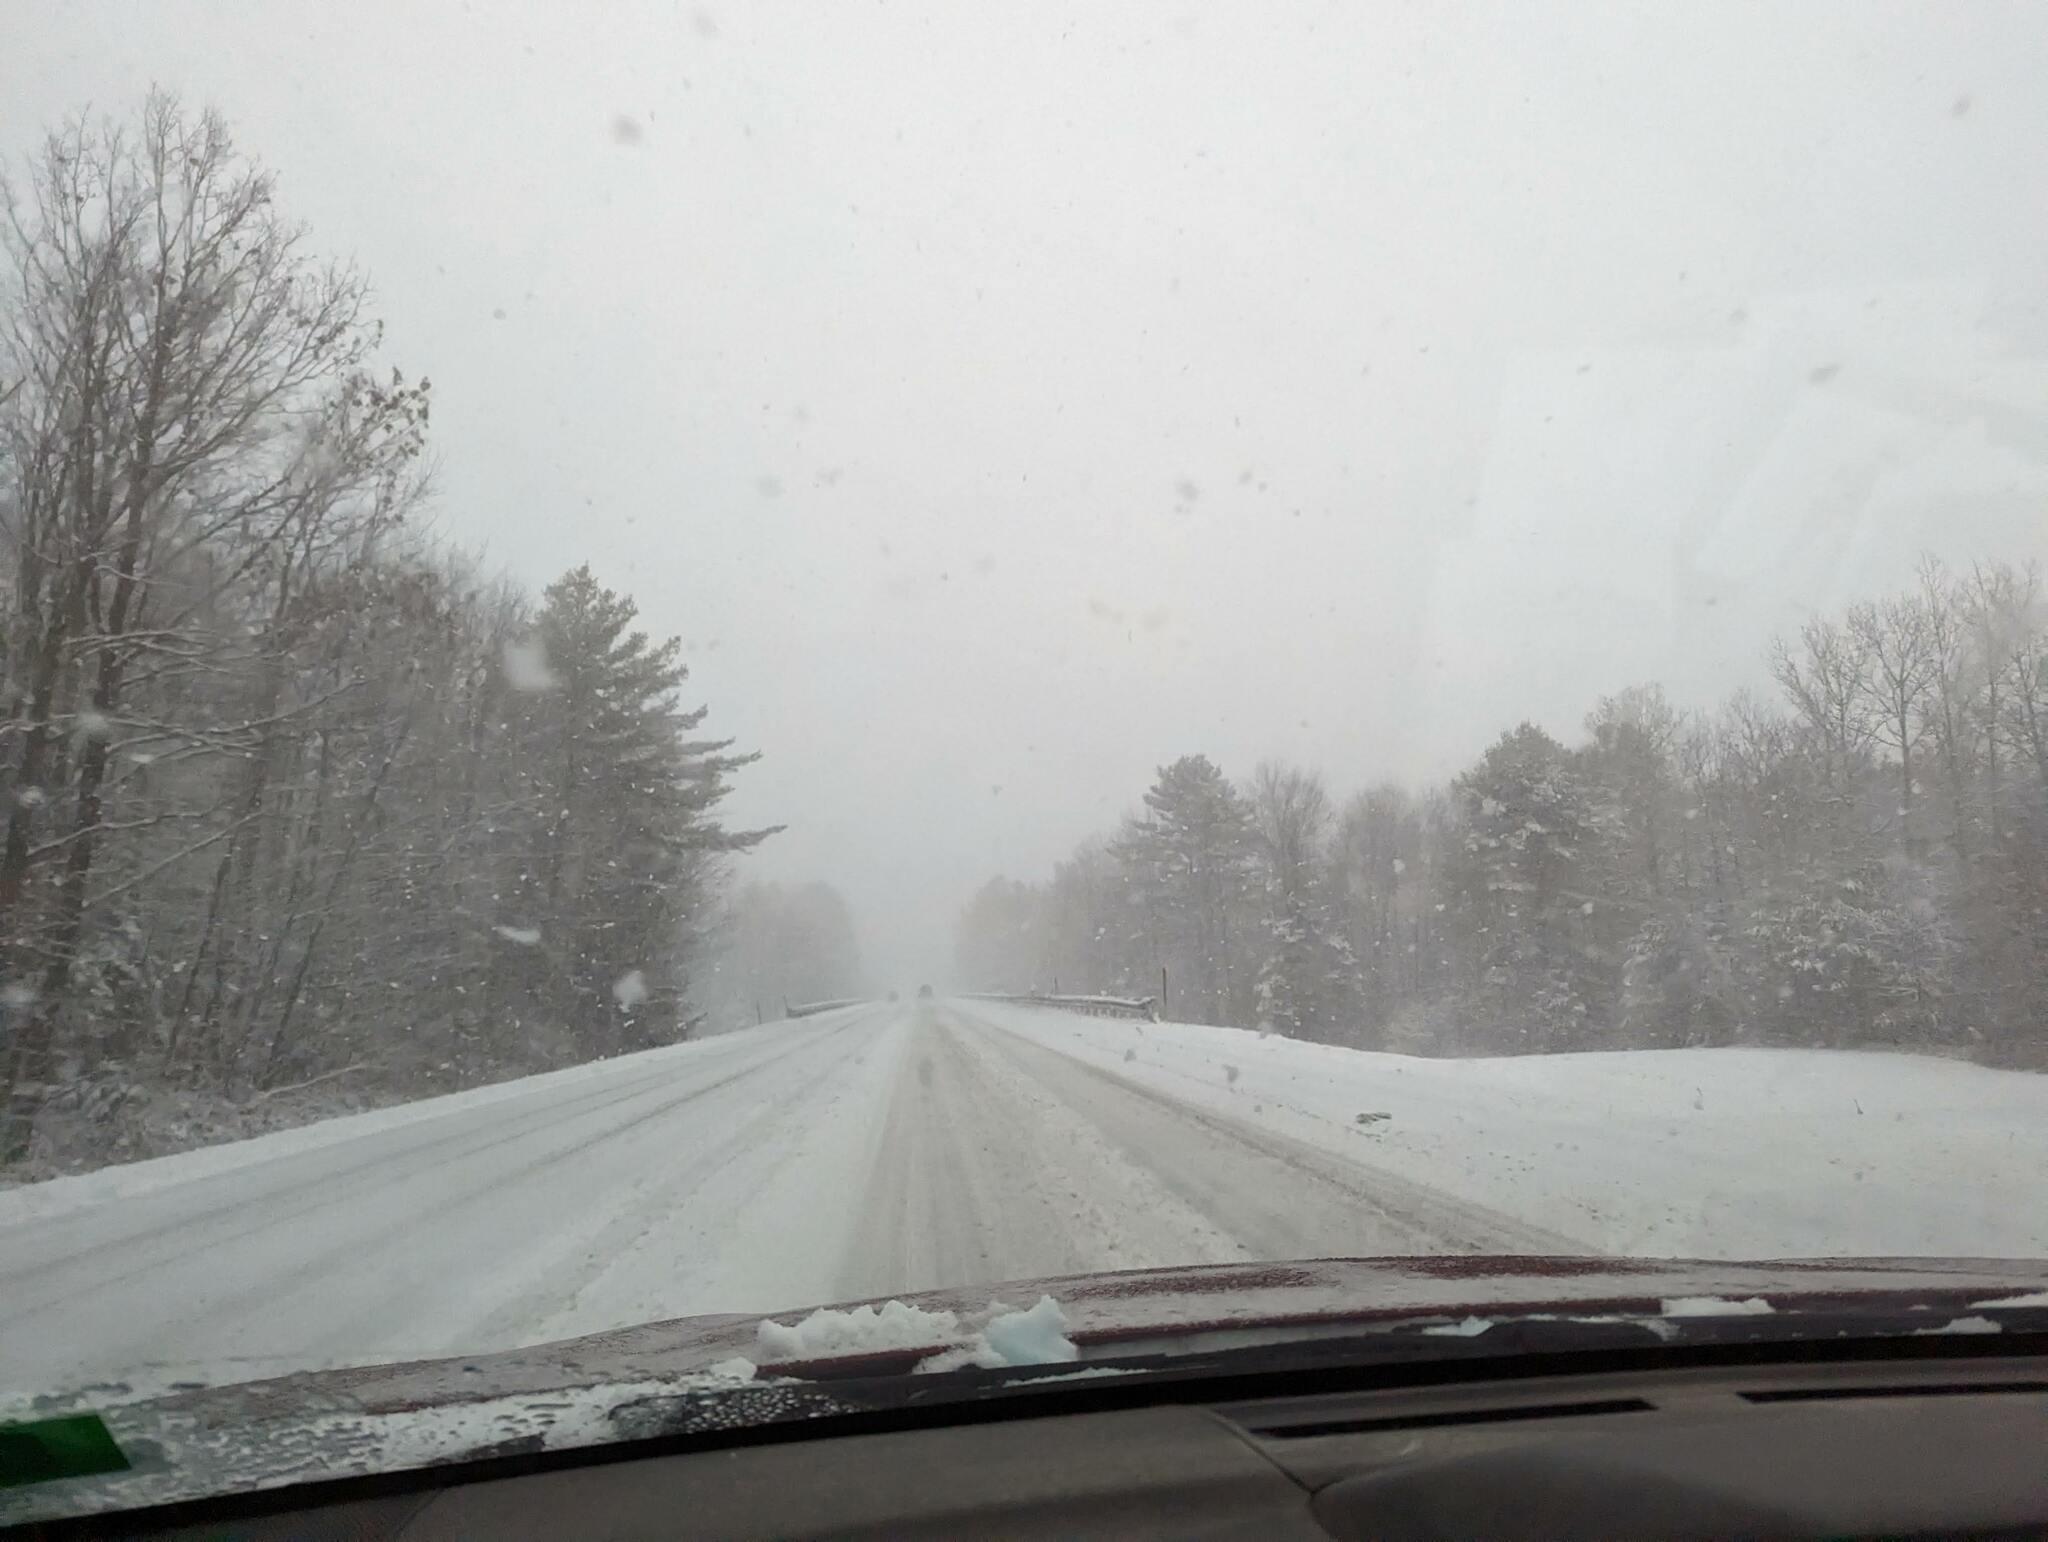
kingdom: Plantae
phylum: Tracheophyta
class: Pinopsida
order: Pinales
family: Pinaceae
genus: Pinus
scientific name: Pinus strobus
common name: Weymouth pine
